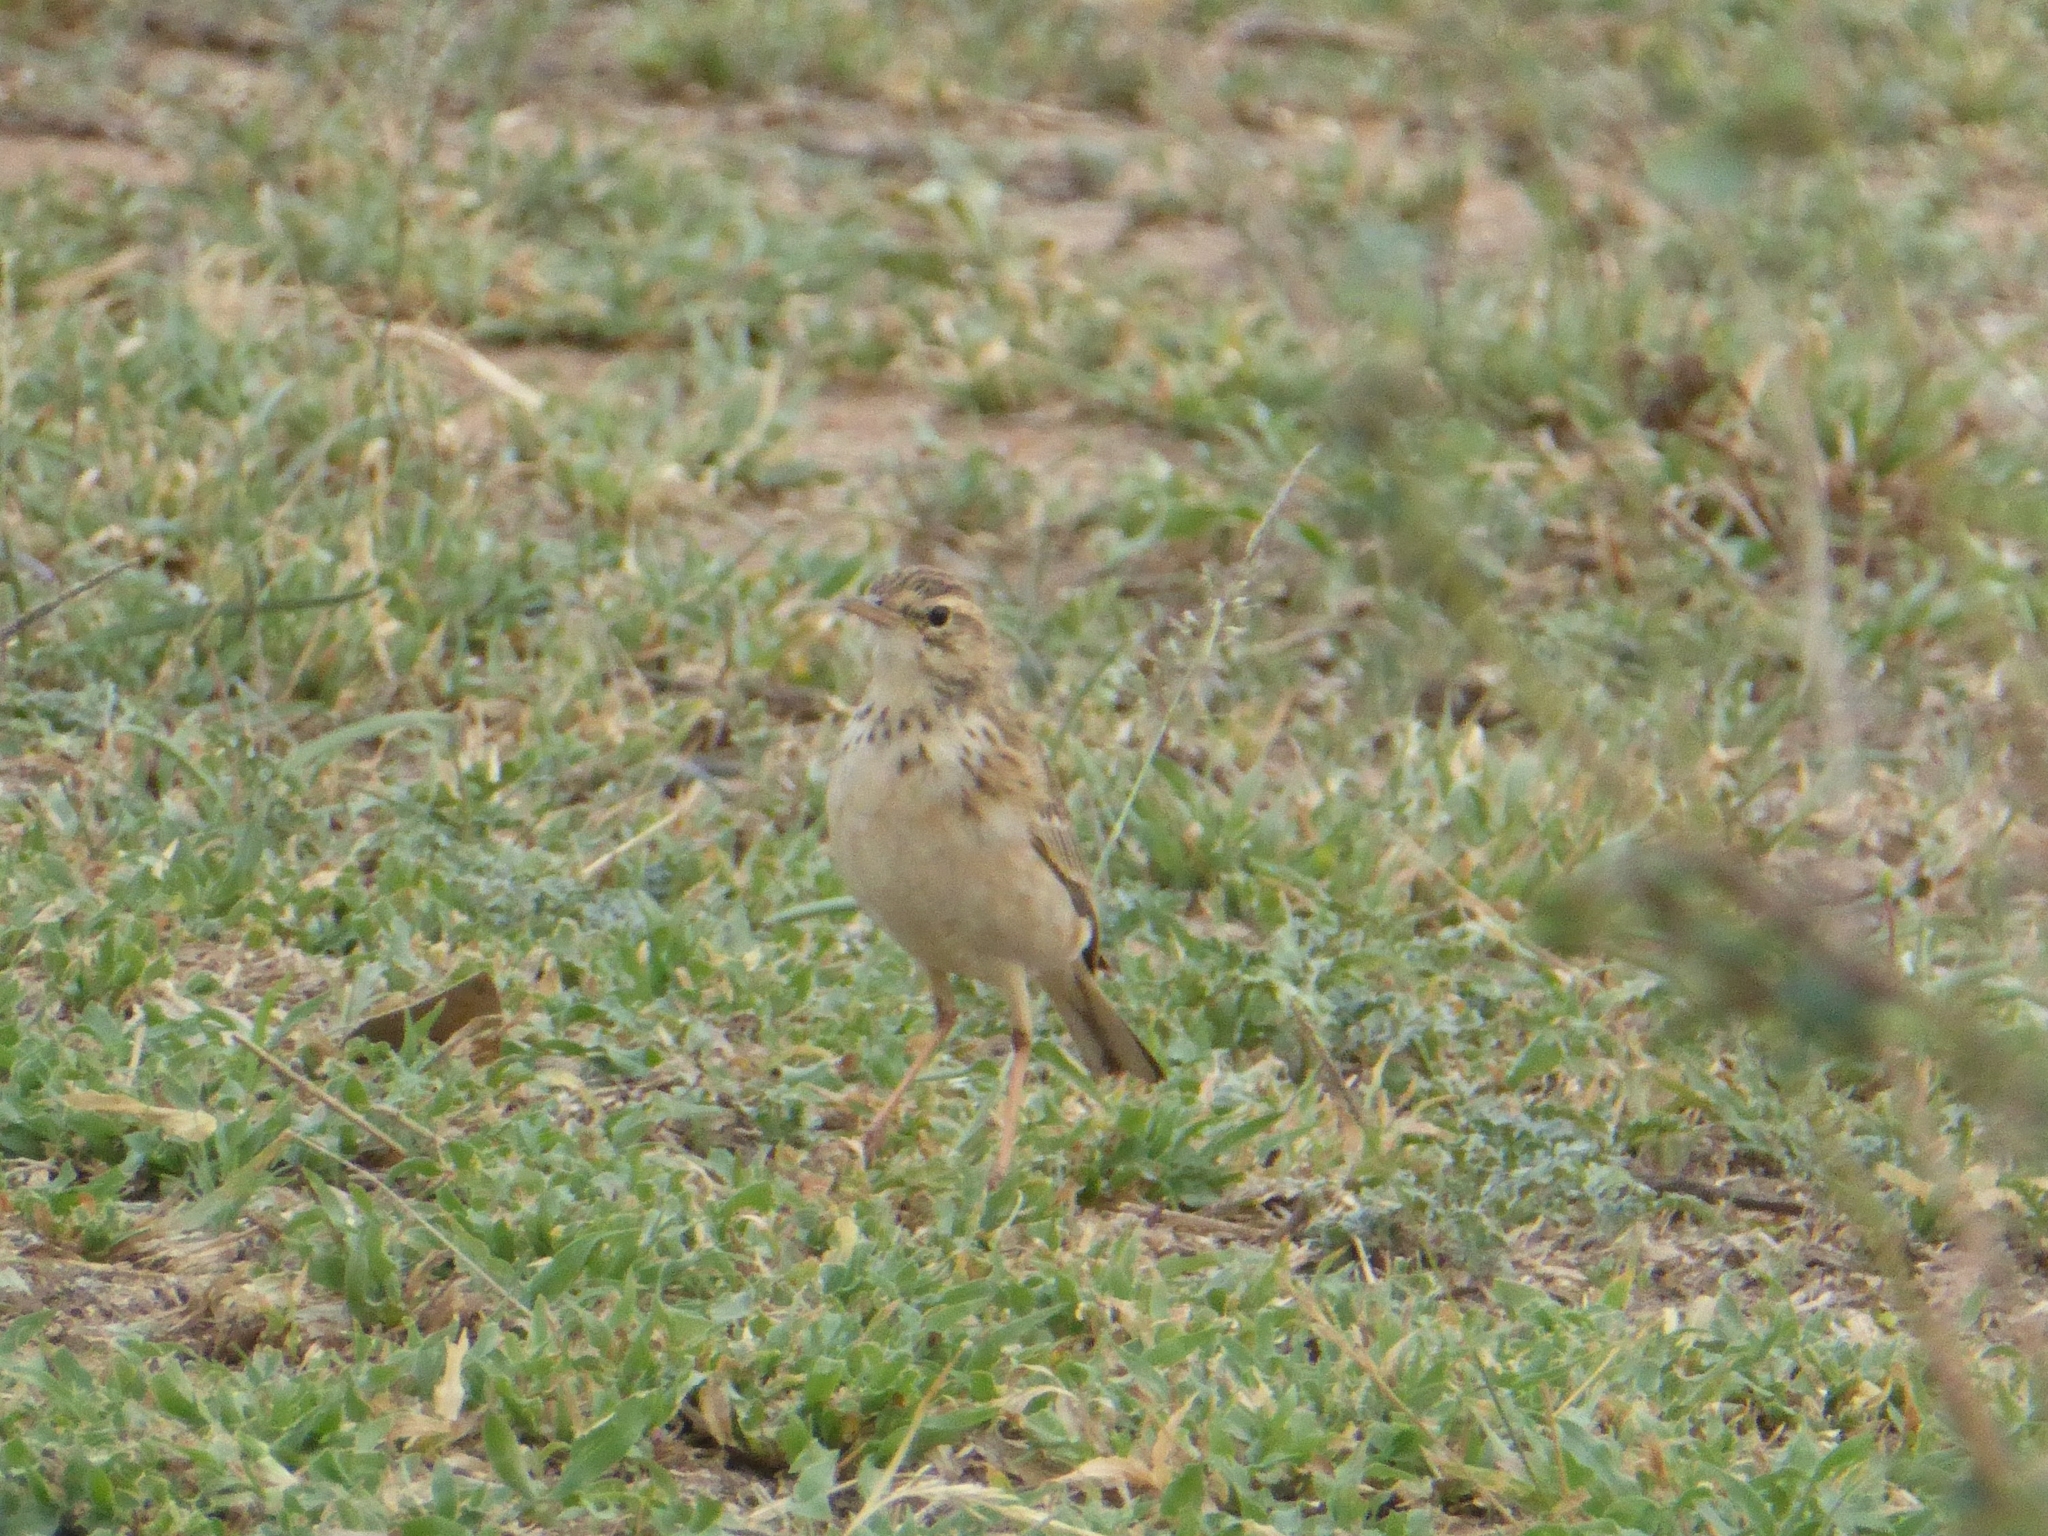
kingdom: Animalia
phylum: Chordata
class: Aves
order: Passeriformes
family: Motacillidae
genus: Anthus
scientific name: Anthus cinnamomeus
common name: African pipit
